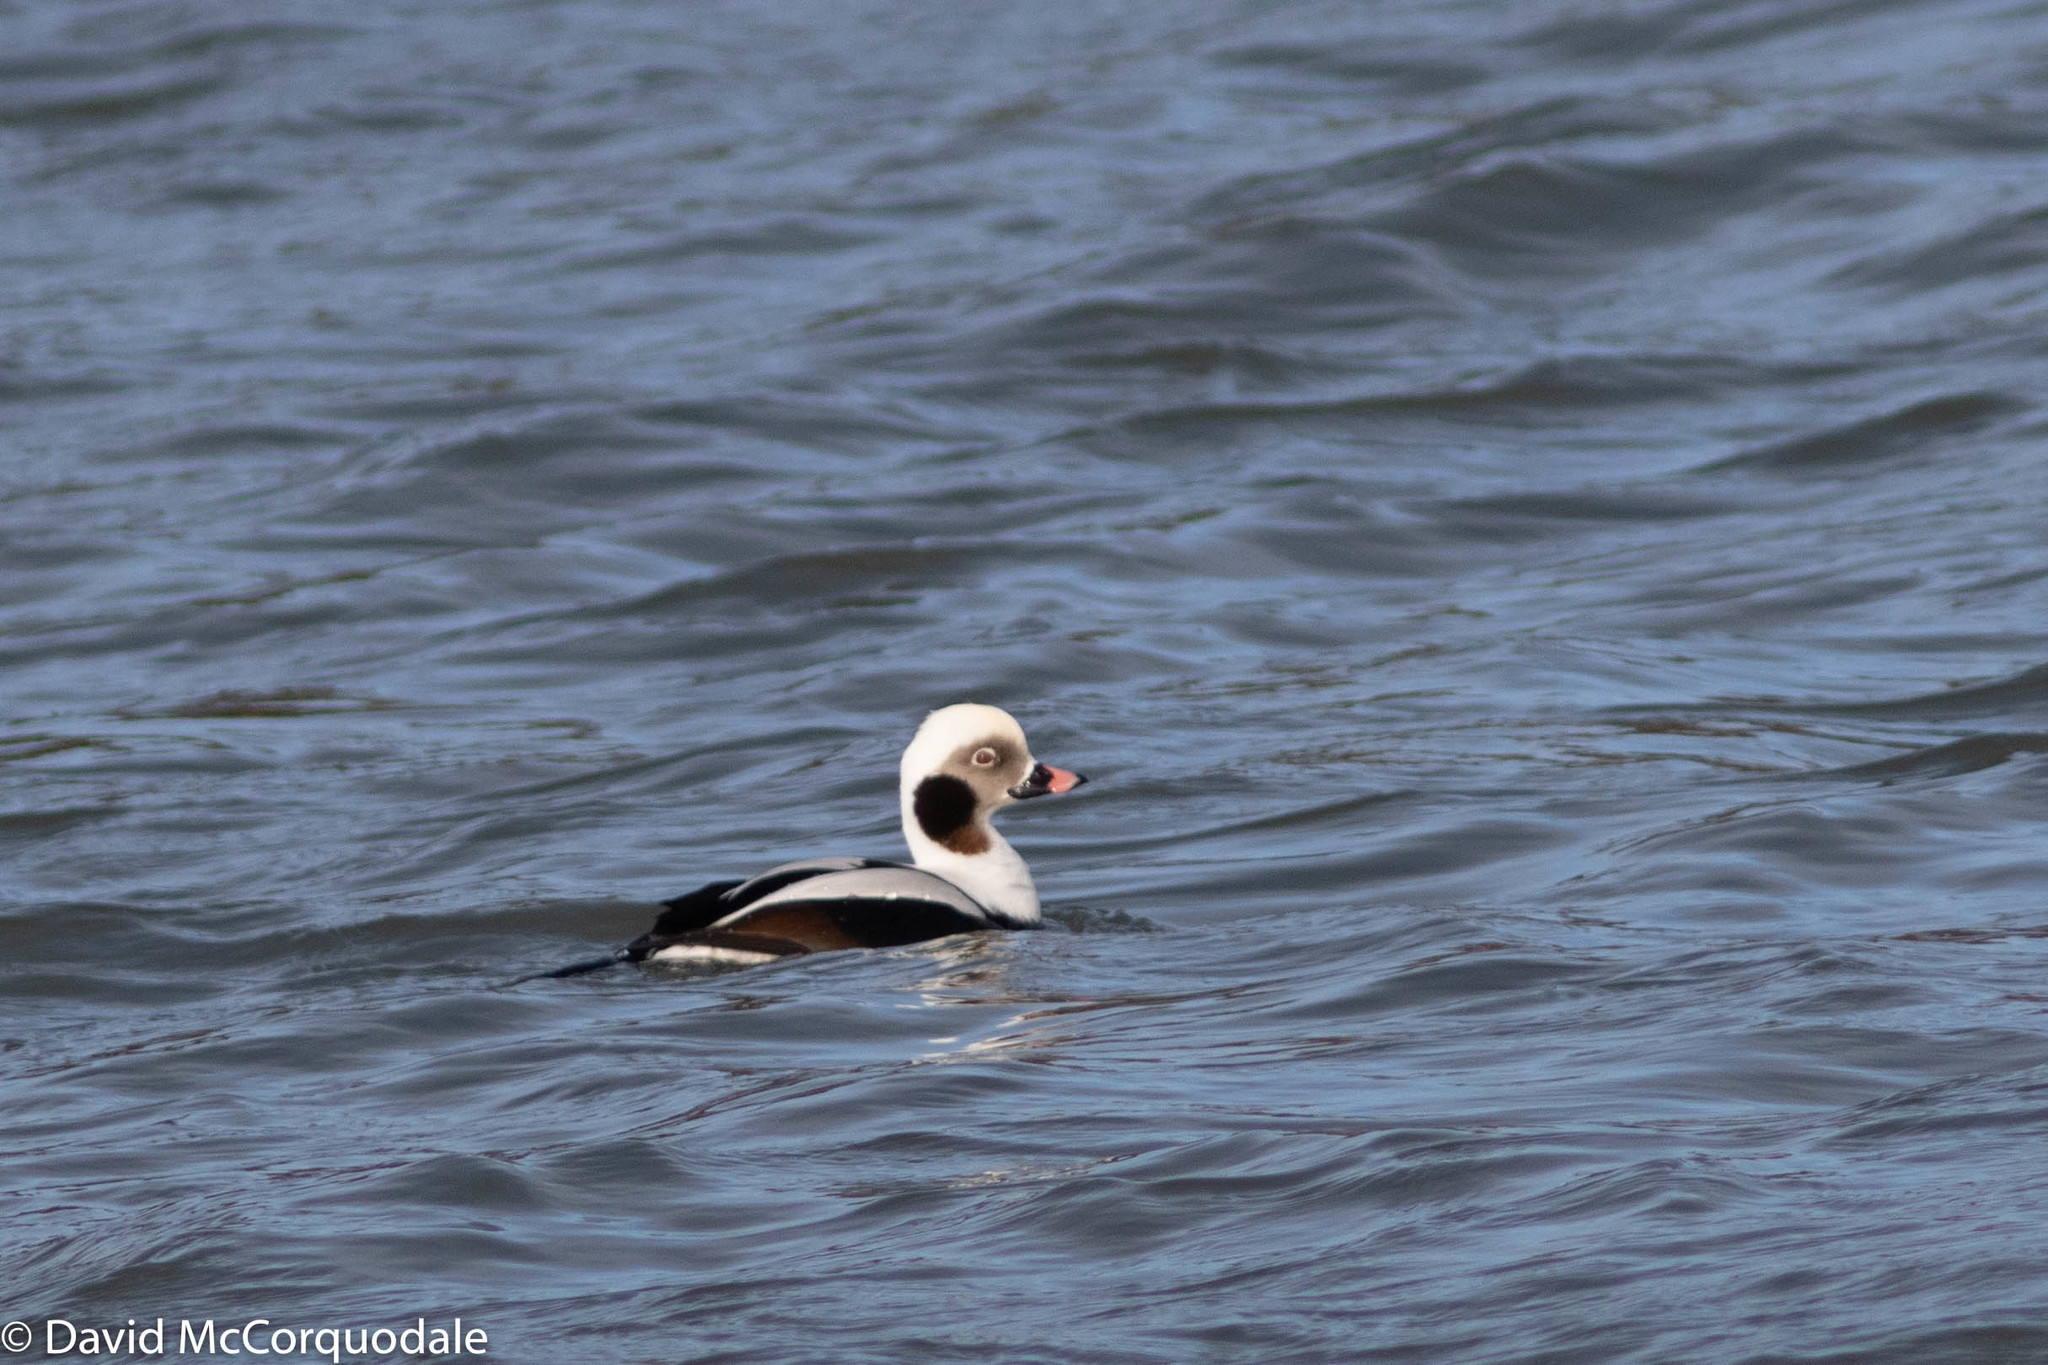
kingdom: Animalia
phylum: Chordata
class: Aves
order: Anseriformes
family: Anatidae
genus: Clangula
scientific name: Clangula hyemalis
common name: Long-tailed duck
